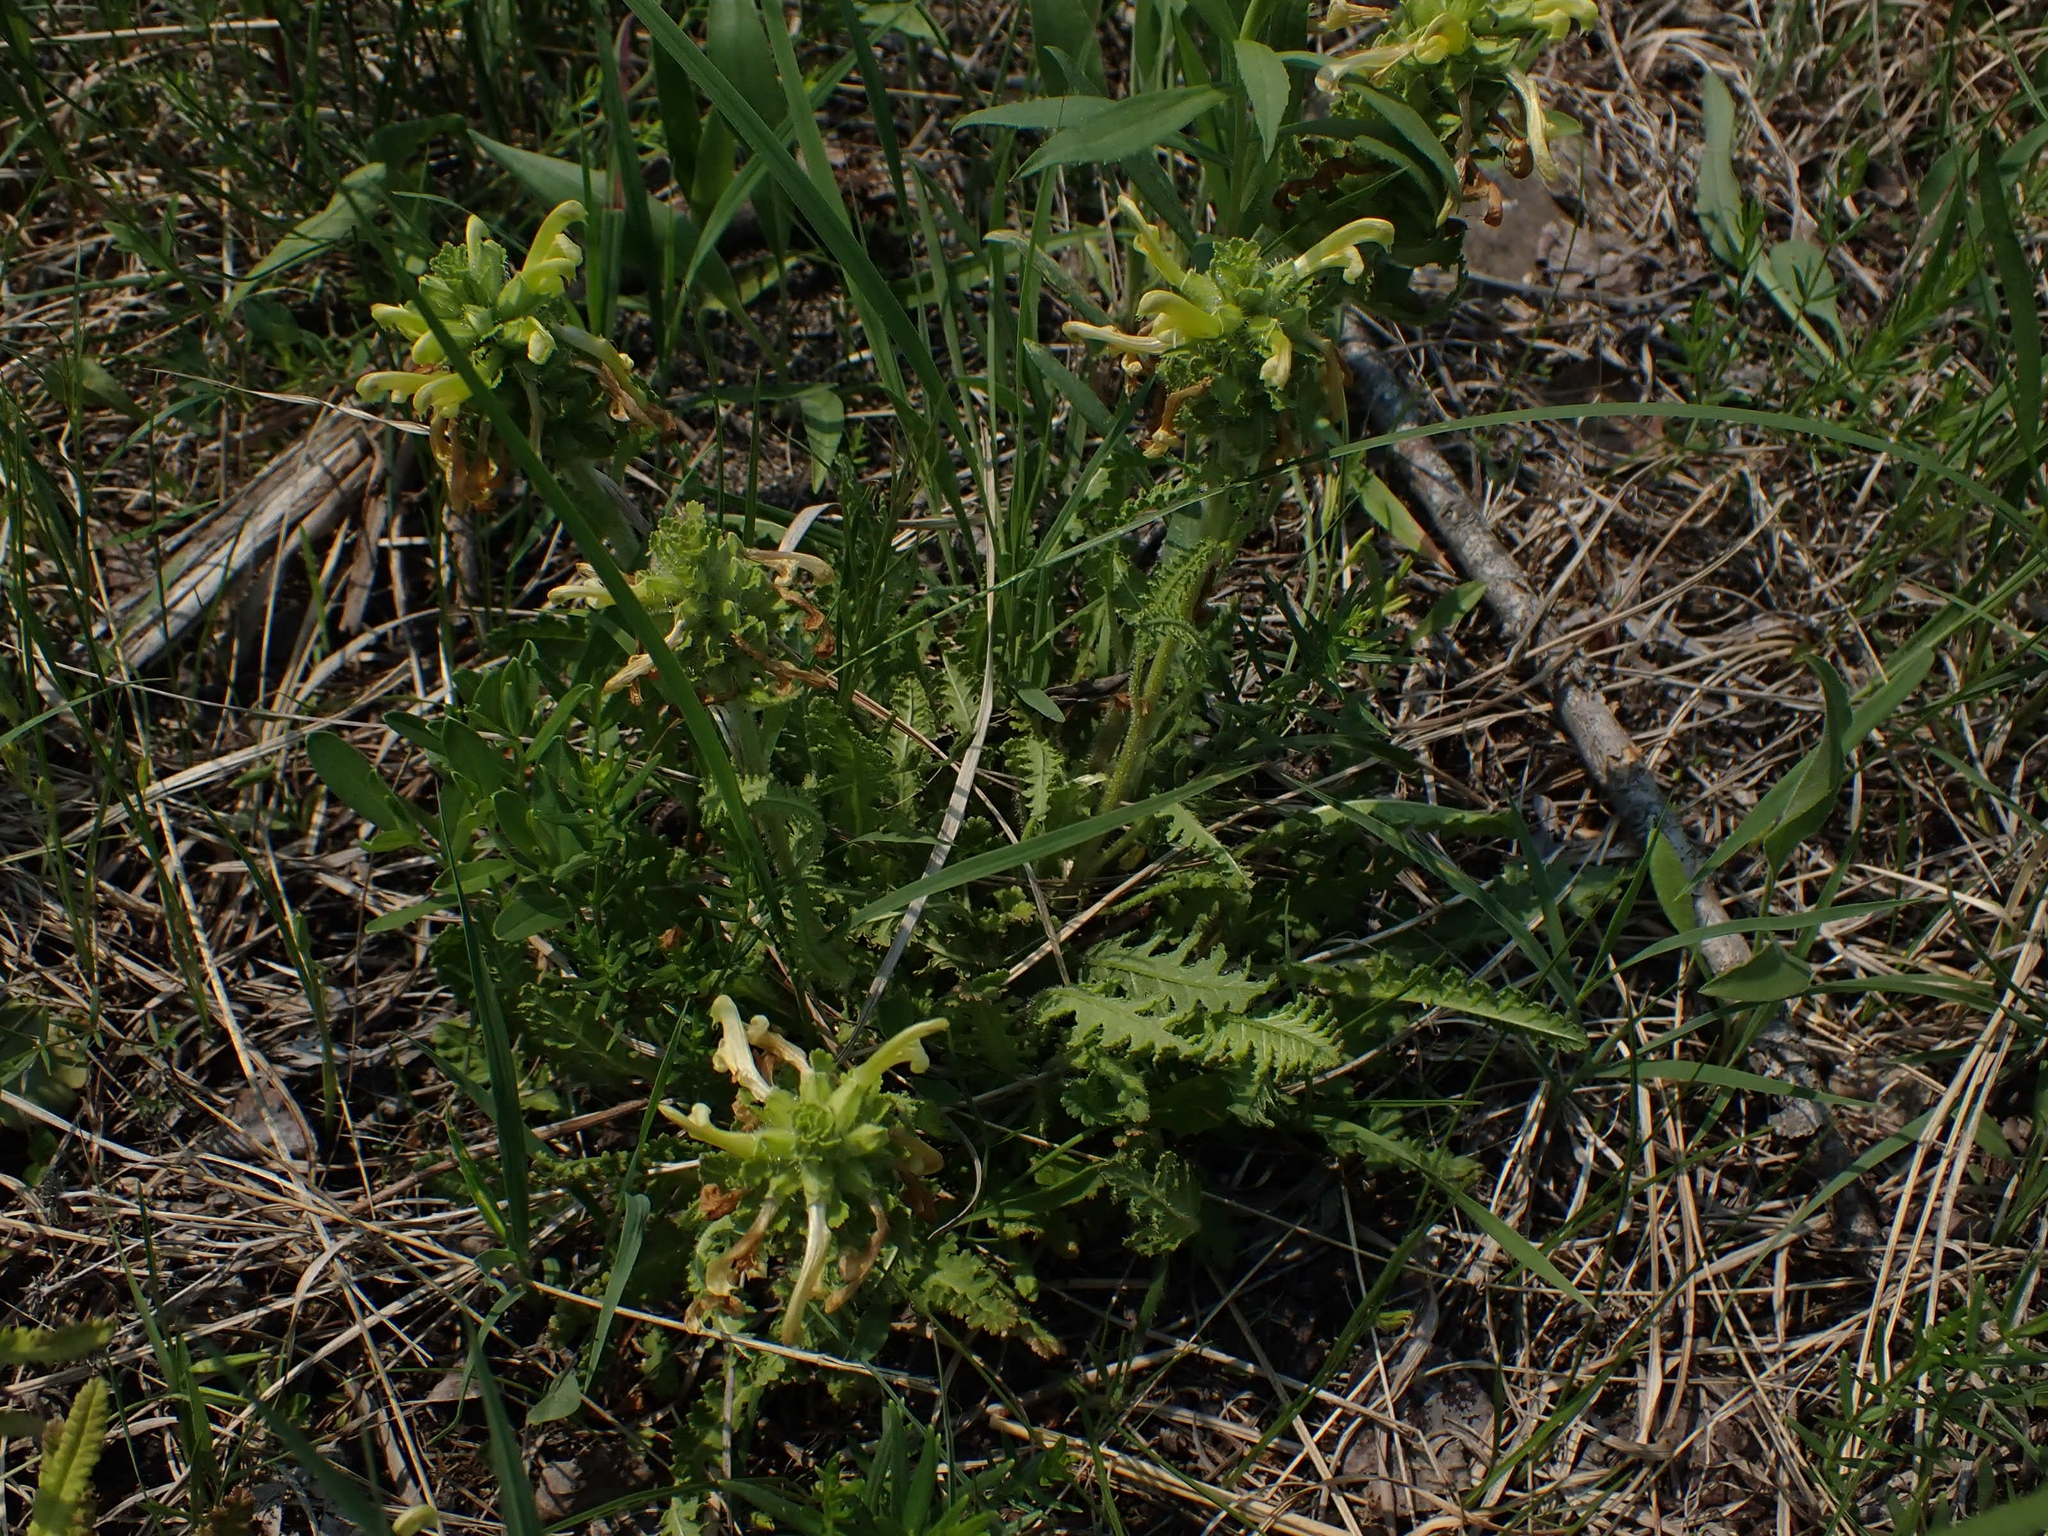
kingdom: Plantae
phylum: Tracheophyta
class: Magnoliopsida
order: Lamiales
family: Orobanchaceae
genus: Pedicularis
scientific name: Pedicularis canadensis
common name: Early lousewort
